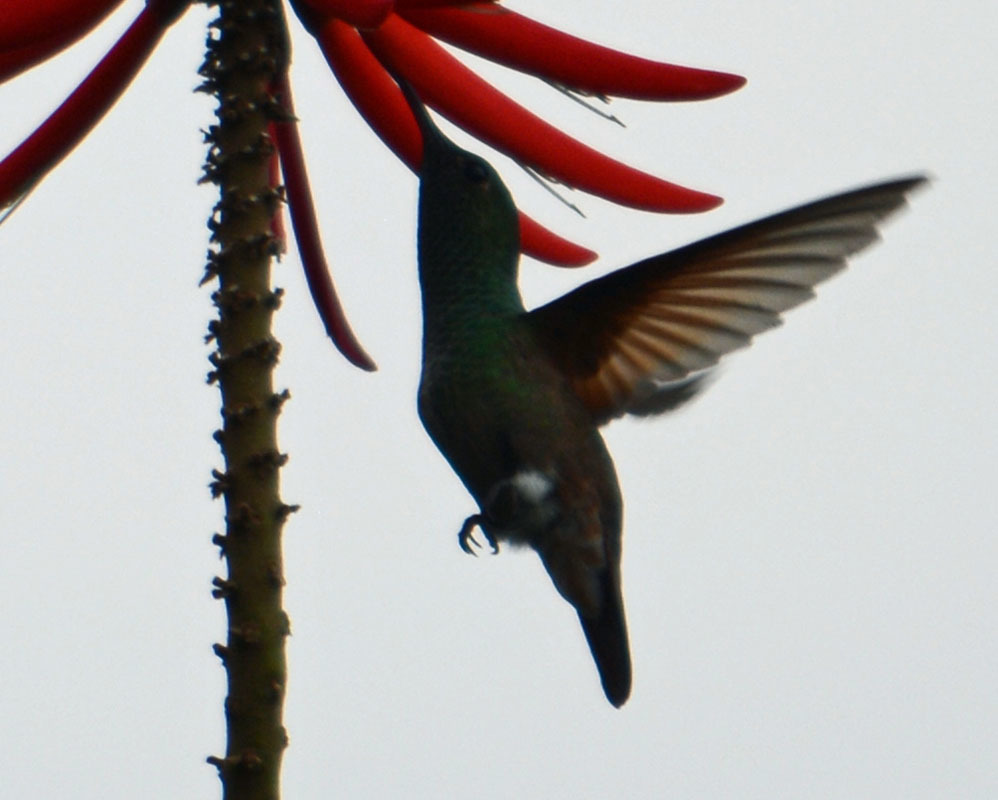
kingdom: Animalia
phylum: Chordata
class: Aves
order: Apodiformes
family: Trochilidae
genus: Saucerottia
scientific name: Saucerottia beryllina
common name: Berylline hummingbird
